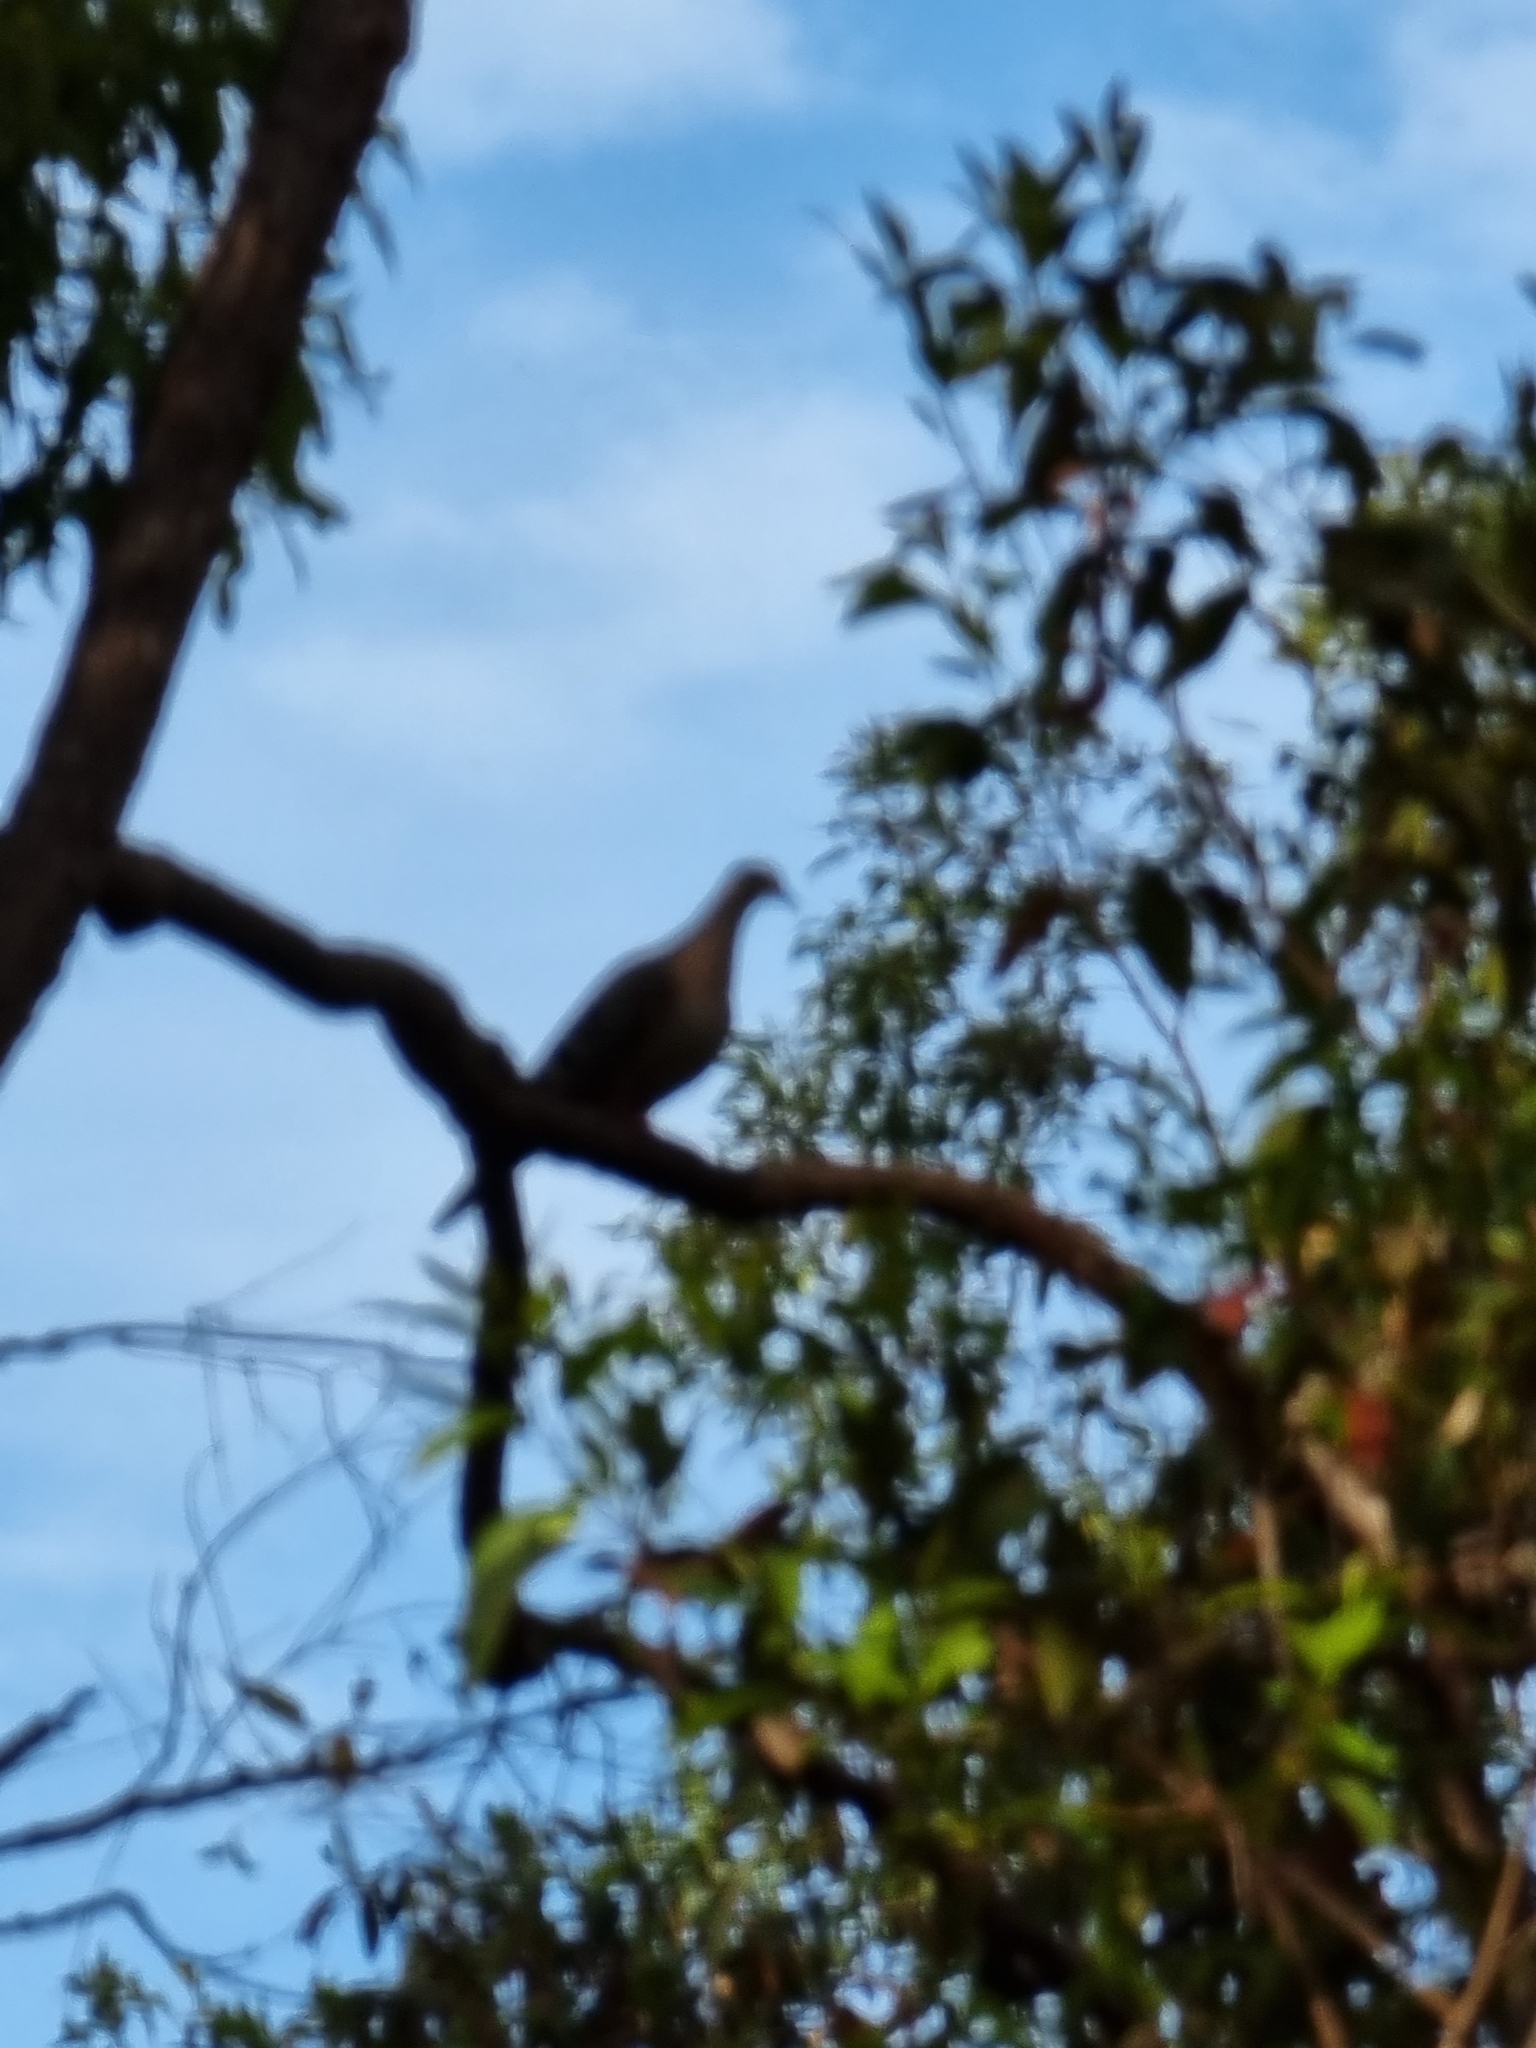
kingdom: Animalia
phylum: Chordata
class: Aves
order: Columbiformes
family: Columbidae
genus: Phaps
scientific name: Phaps chalcoptera
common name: Common bronzewing
